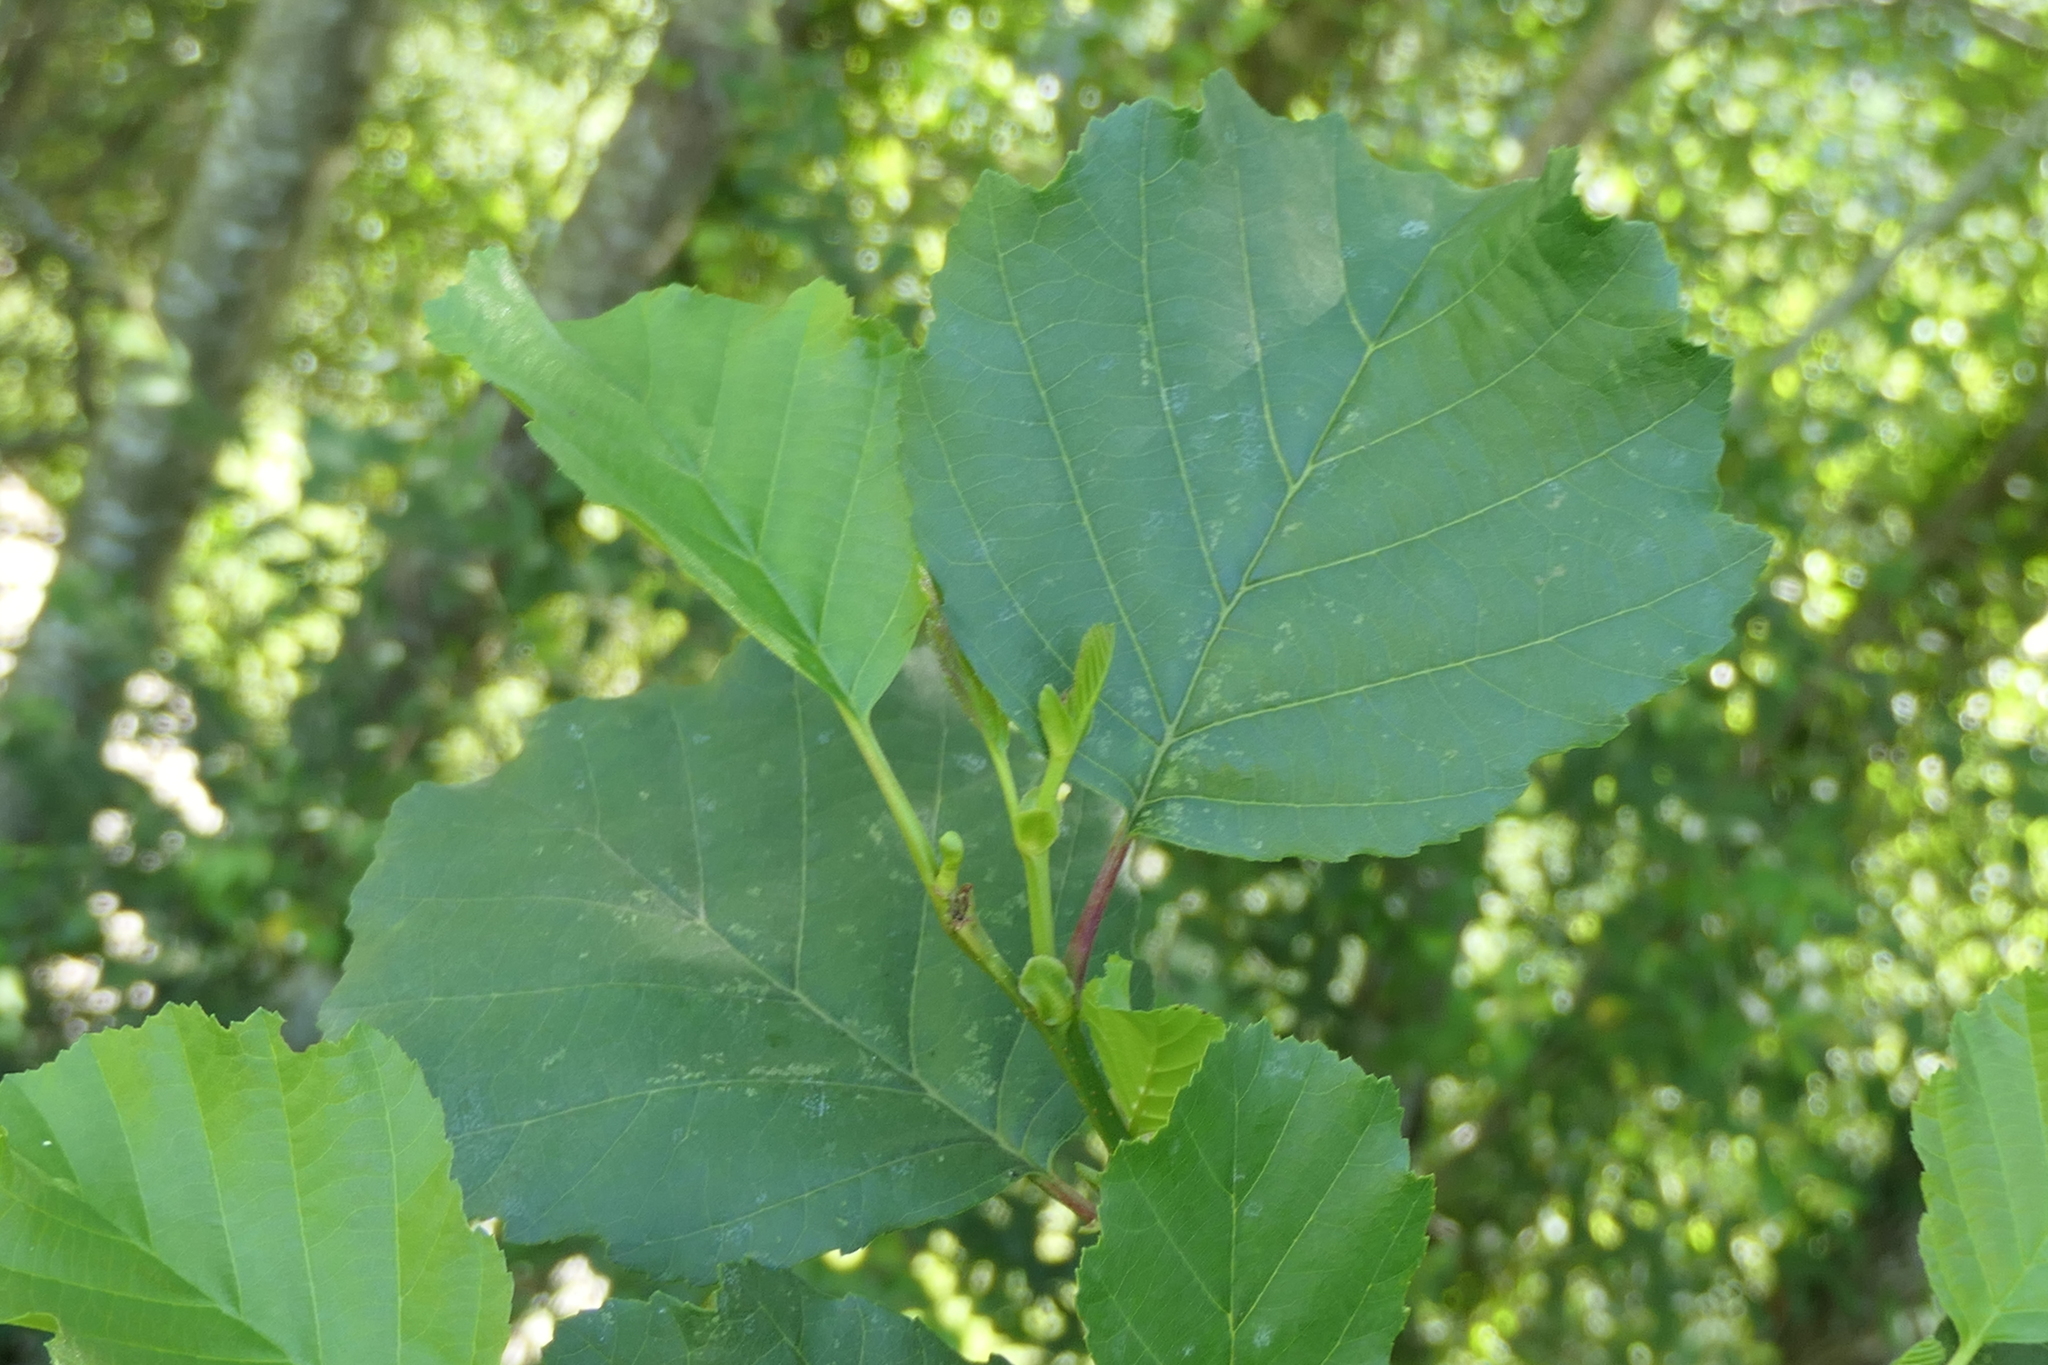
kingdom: Plantae
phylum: Tracheophyta
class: Magnoliopsida
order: Fagales
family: Betulaceae
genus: Alnus
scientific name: Alnus lusitanica
